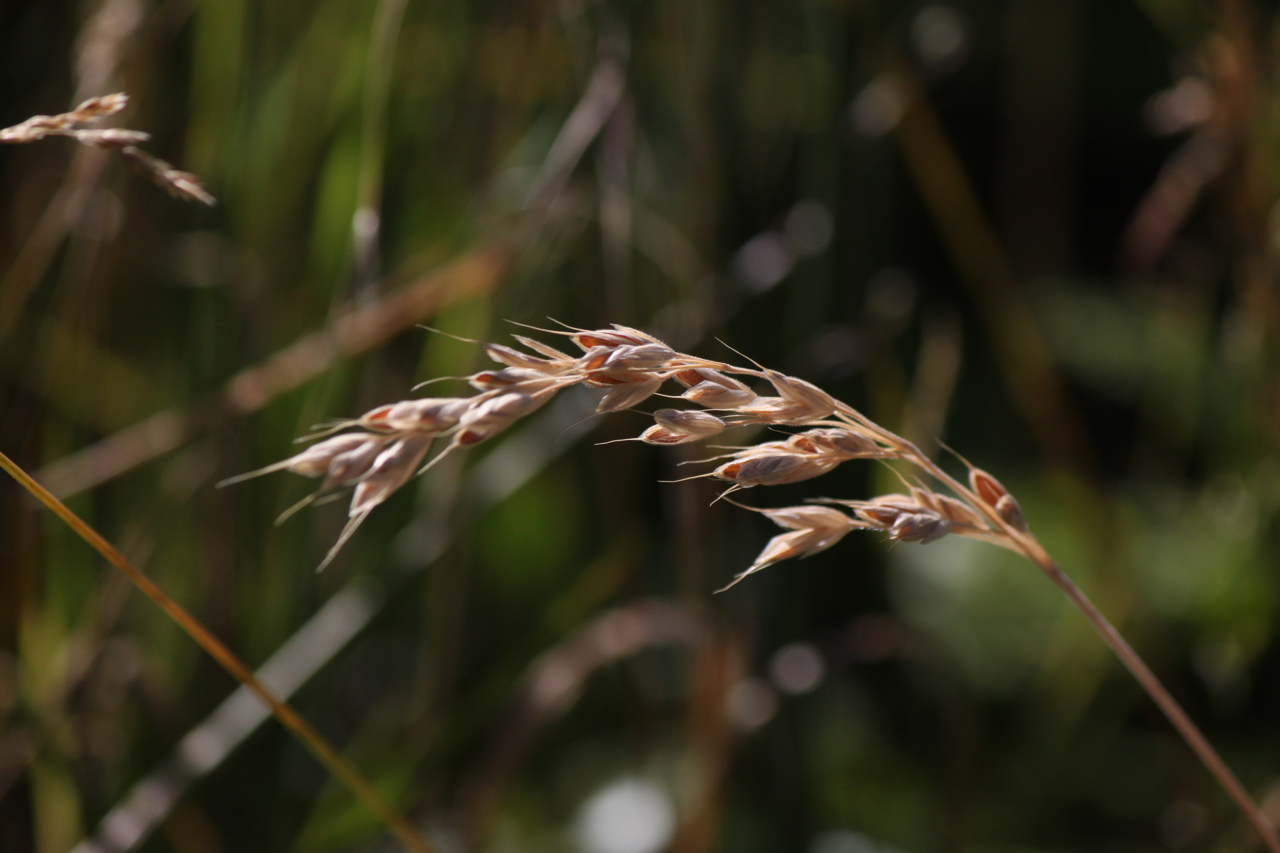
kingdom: Plantae
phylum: Tracheophyta
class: Liliopsida
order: Poales
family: Poaceae
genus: Bromus
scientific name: Bromus hordeaceus
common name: Soft brome
